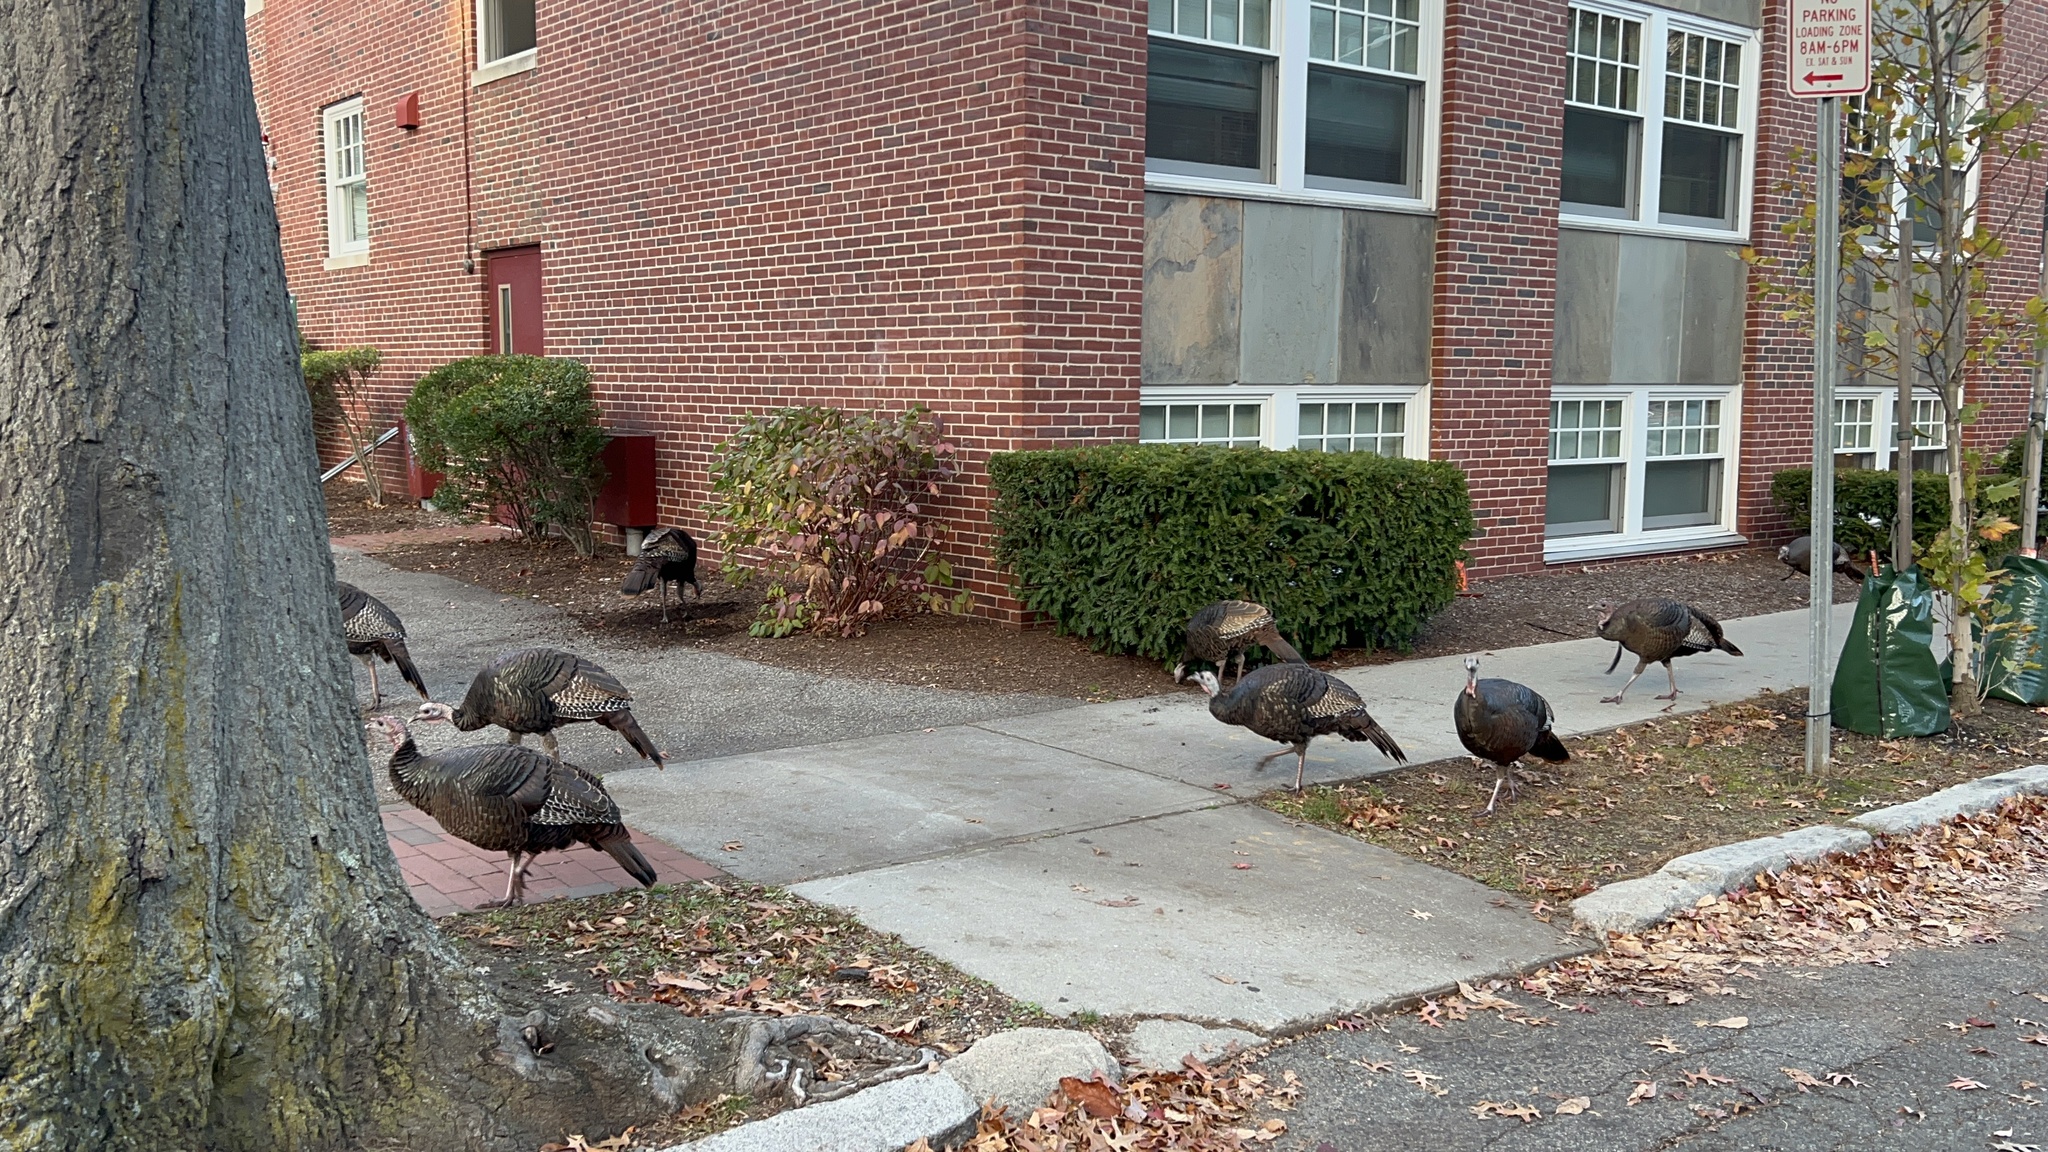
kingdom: Animalia
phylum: Chordata
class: Aves
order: Galliformes
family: Phasianidae
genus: Meleagris
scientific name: Meleagris gallopavo
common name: Wild turkey
